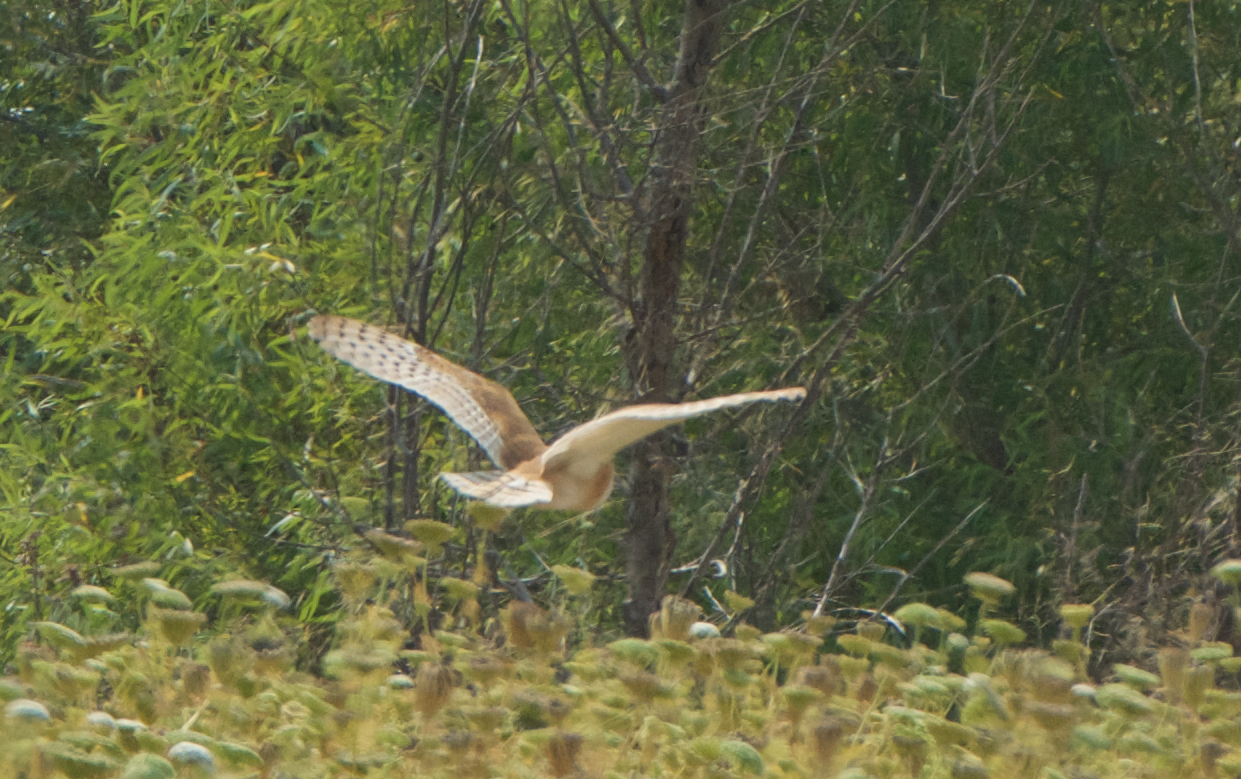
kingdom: Animalia
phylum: Chordata
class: Aves
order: Strigiformes
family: Tytonidae
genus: Tyto
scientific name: Tyto alba
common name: Barn owl
